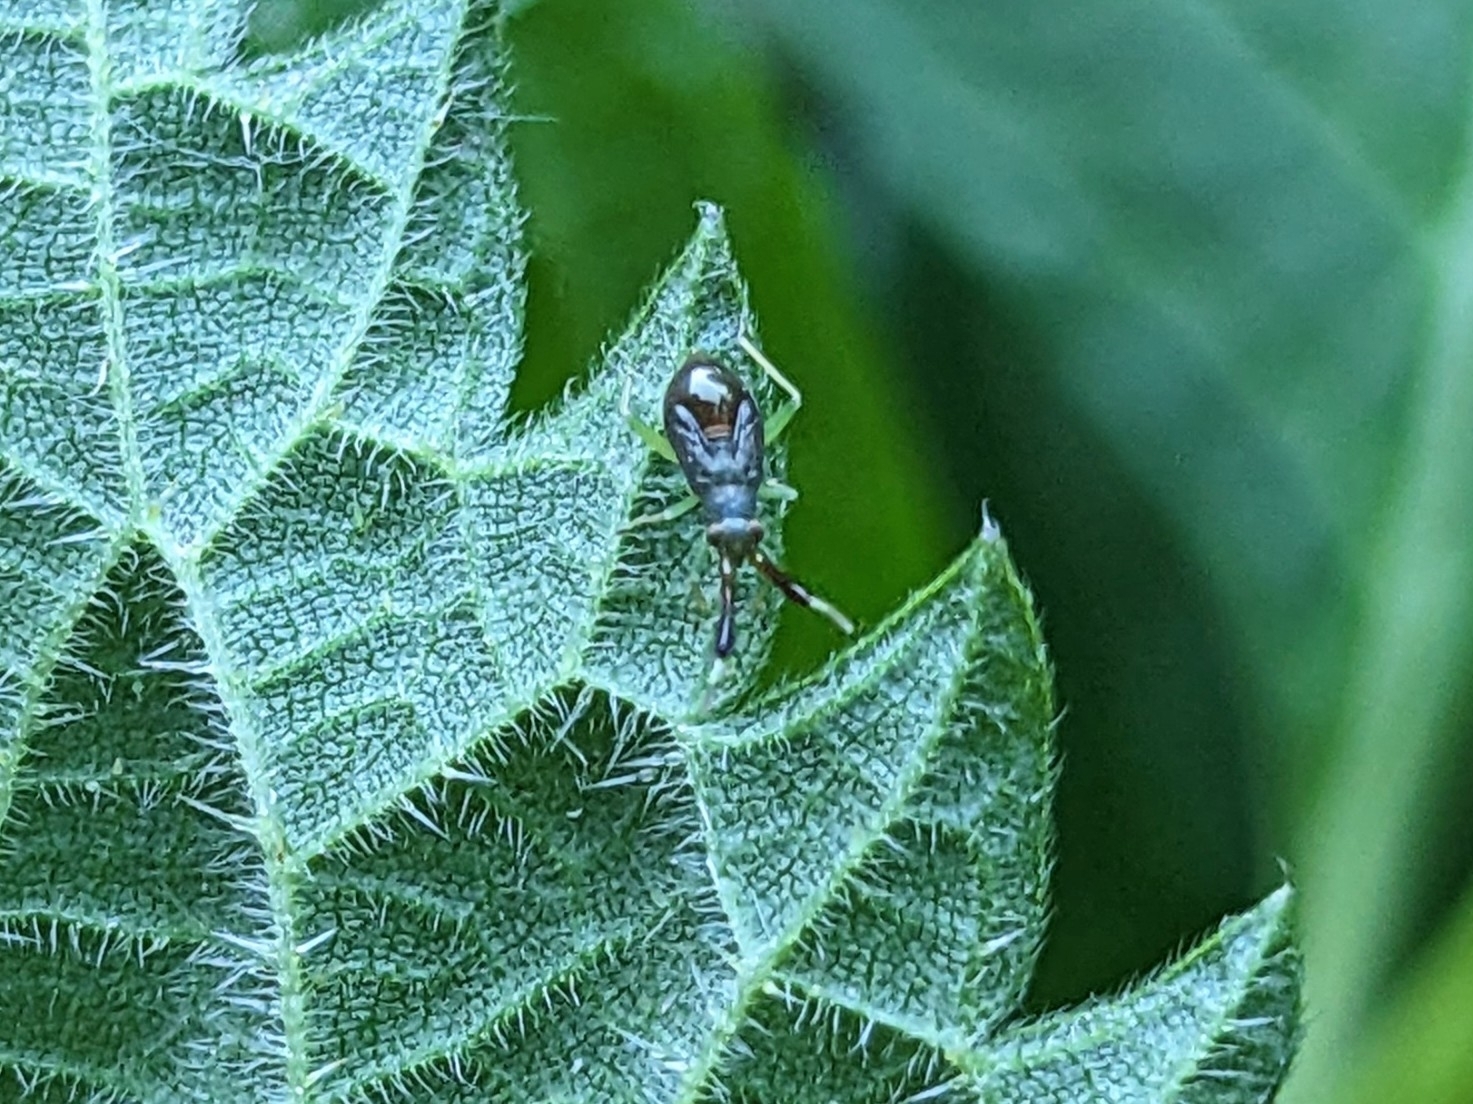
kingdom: Animalia
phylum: Arthropoda
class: Insecta
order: Hemiptera
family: Miridae
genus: Heterotoma
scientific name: Heterotoma planicornis
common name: Plant bug
